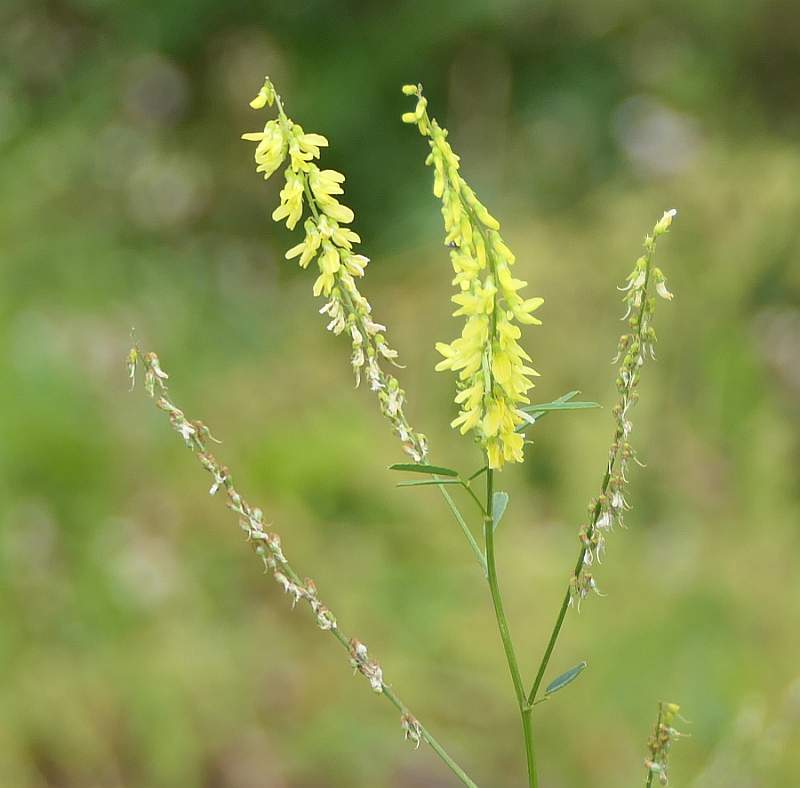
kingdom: Plantae
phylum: Tracheophyta
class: Magnoliopsida
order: Fabales
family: Fabaceae
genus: Melilotus
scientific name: Melilotus officinalis
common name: Sweetclover
